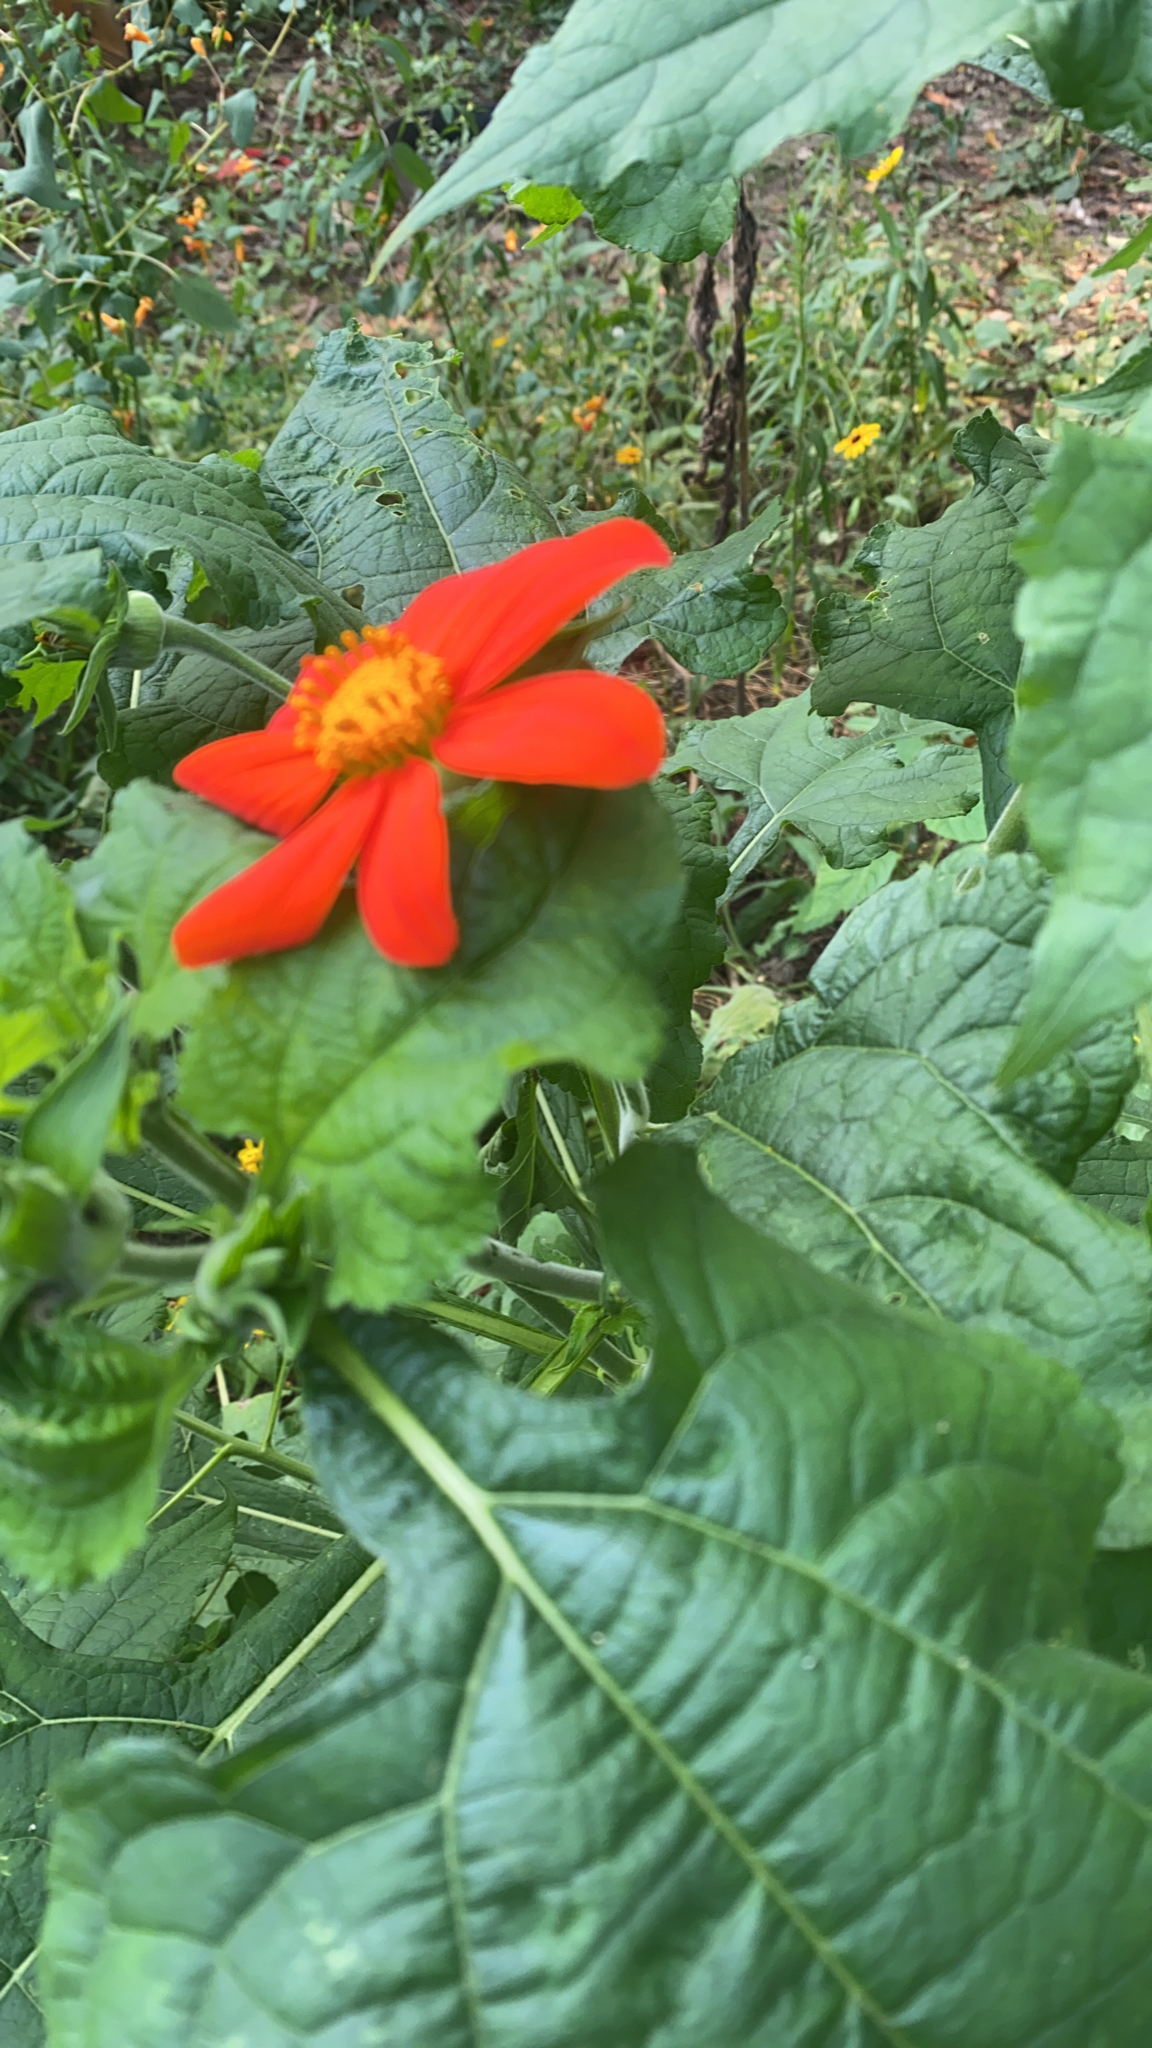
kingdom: Plantae
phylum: Tracheophyta
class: Magnoliopsida
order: Asterales
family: Asteraceae
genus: Tithonia
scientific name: Tithonia rotundifolia
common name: Sunflower
